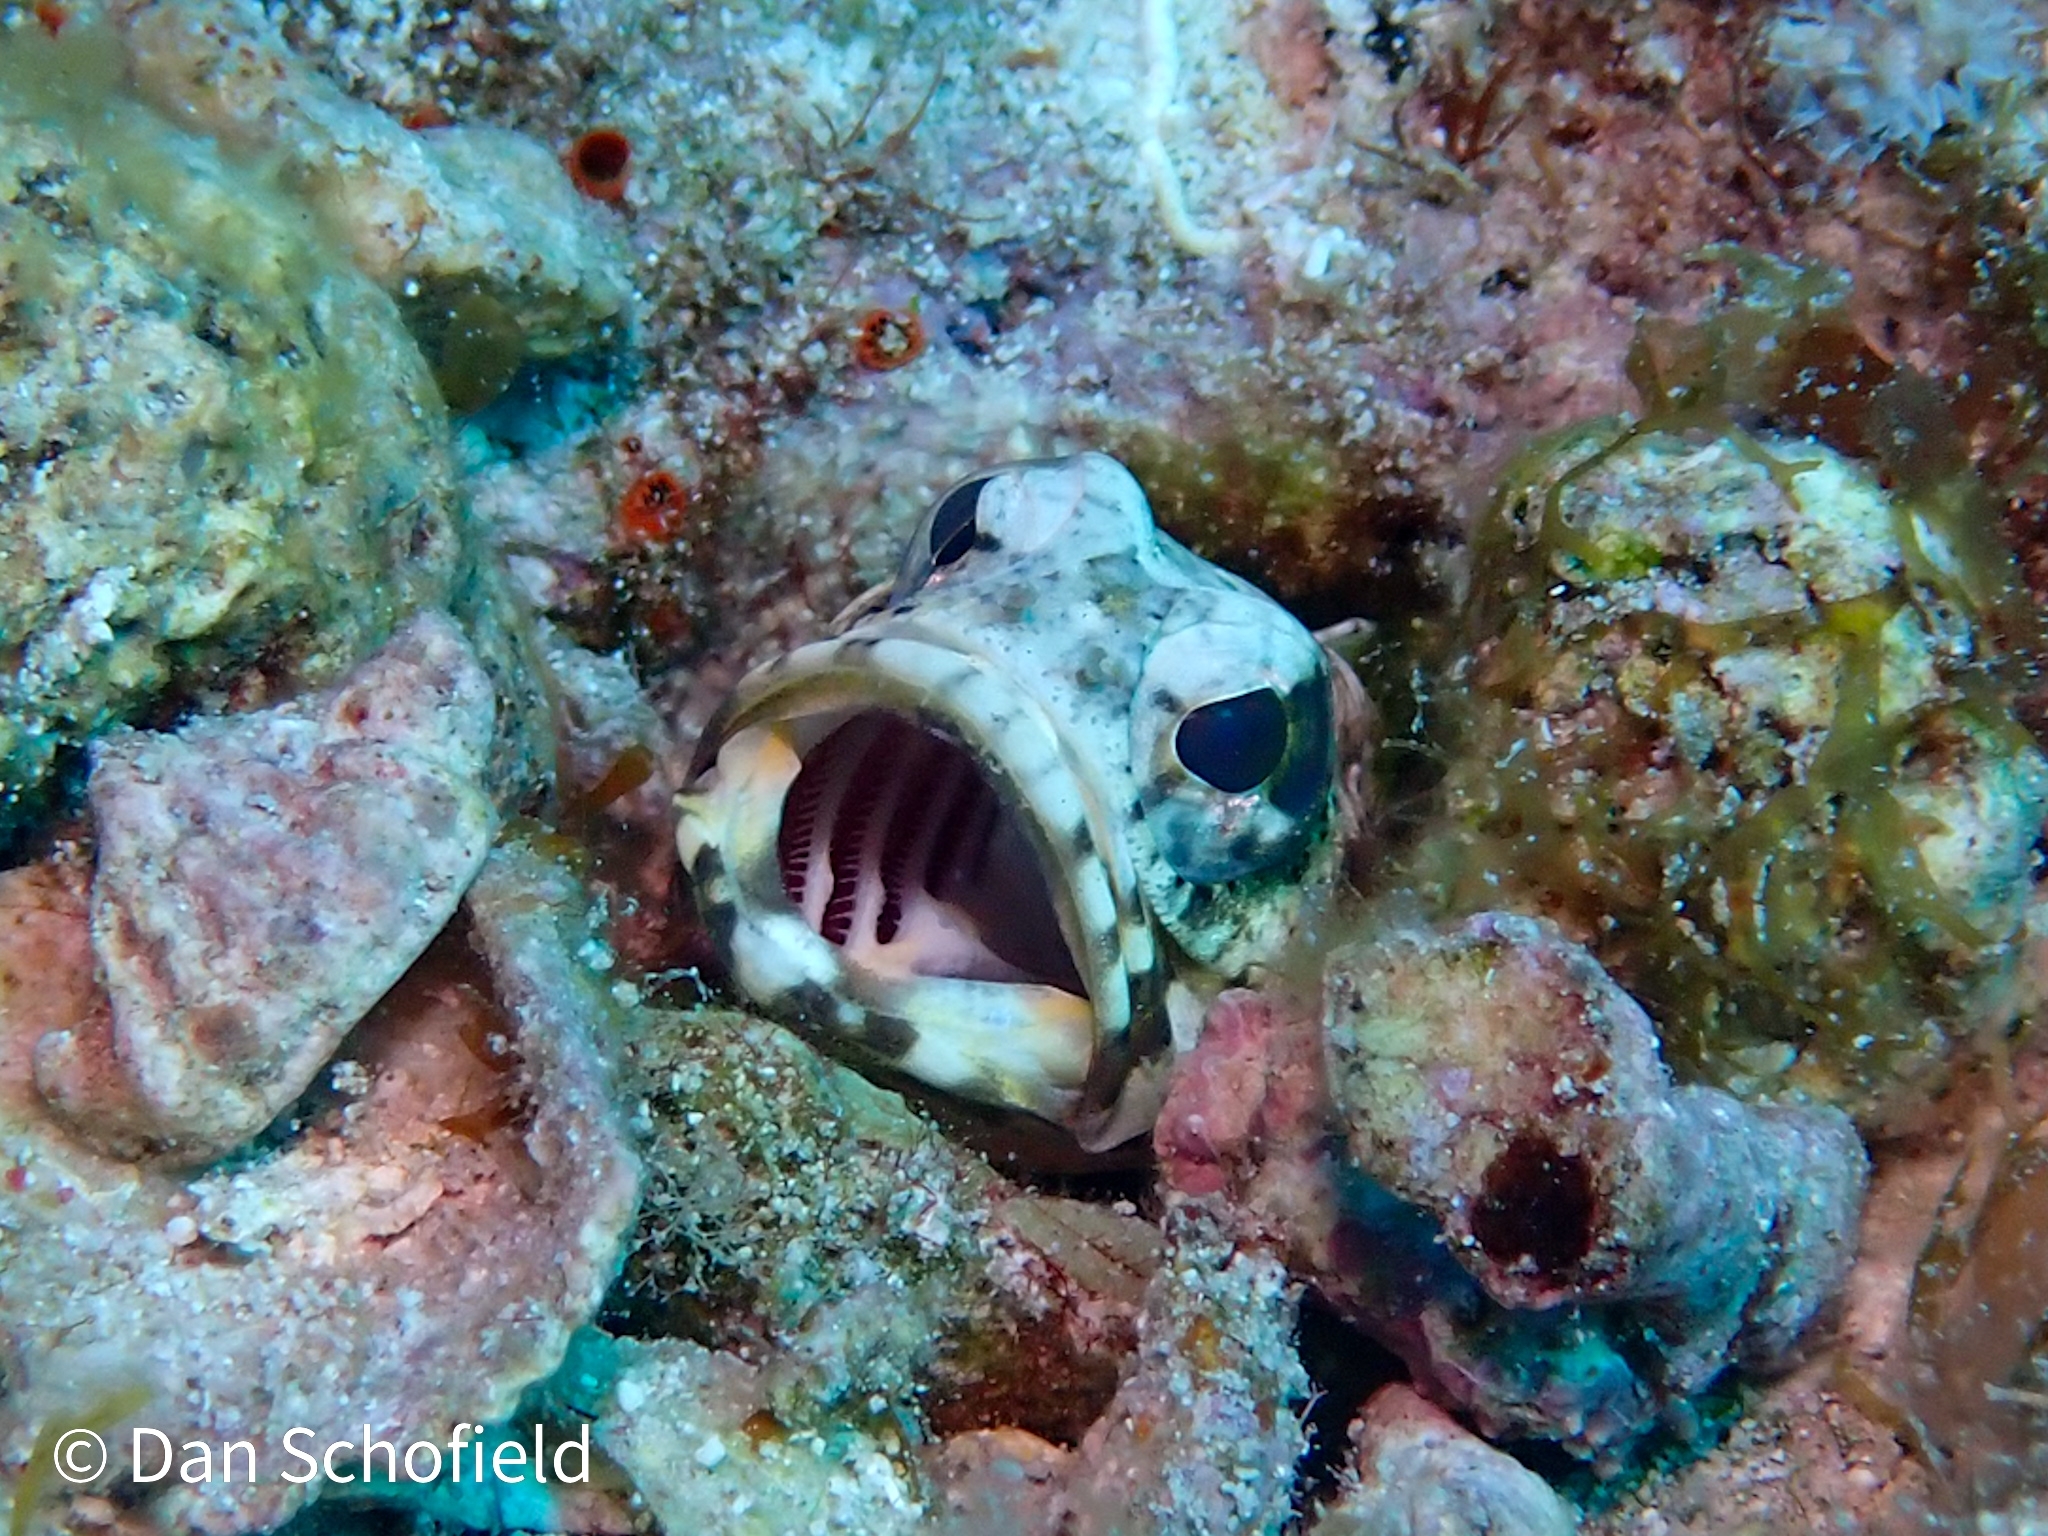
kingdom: Animalia
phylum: Chordata
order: Perciformes
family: Opistognathidae
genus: Opistognathus
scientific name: Opistognathus maxillosus
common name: Mottled jawfish
